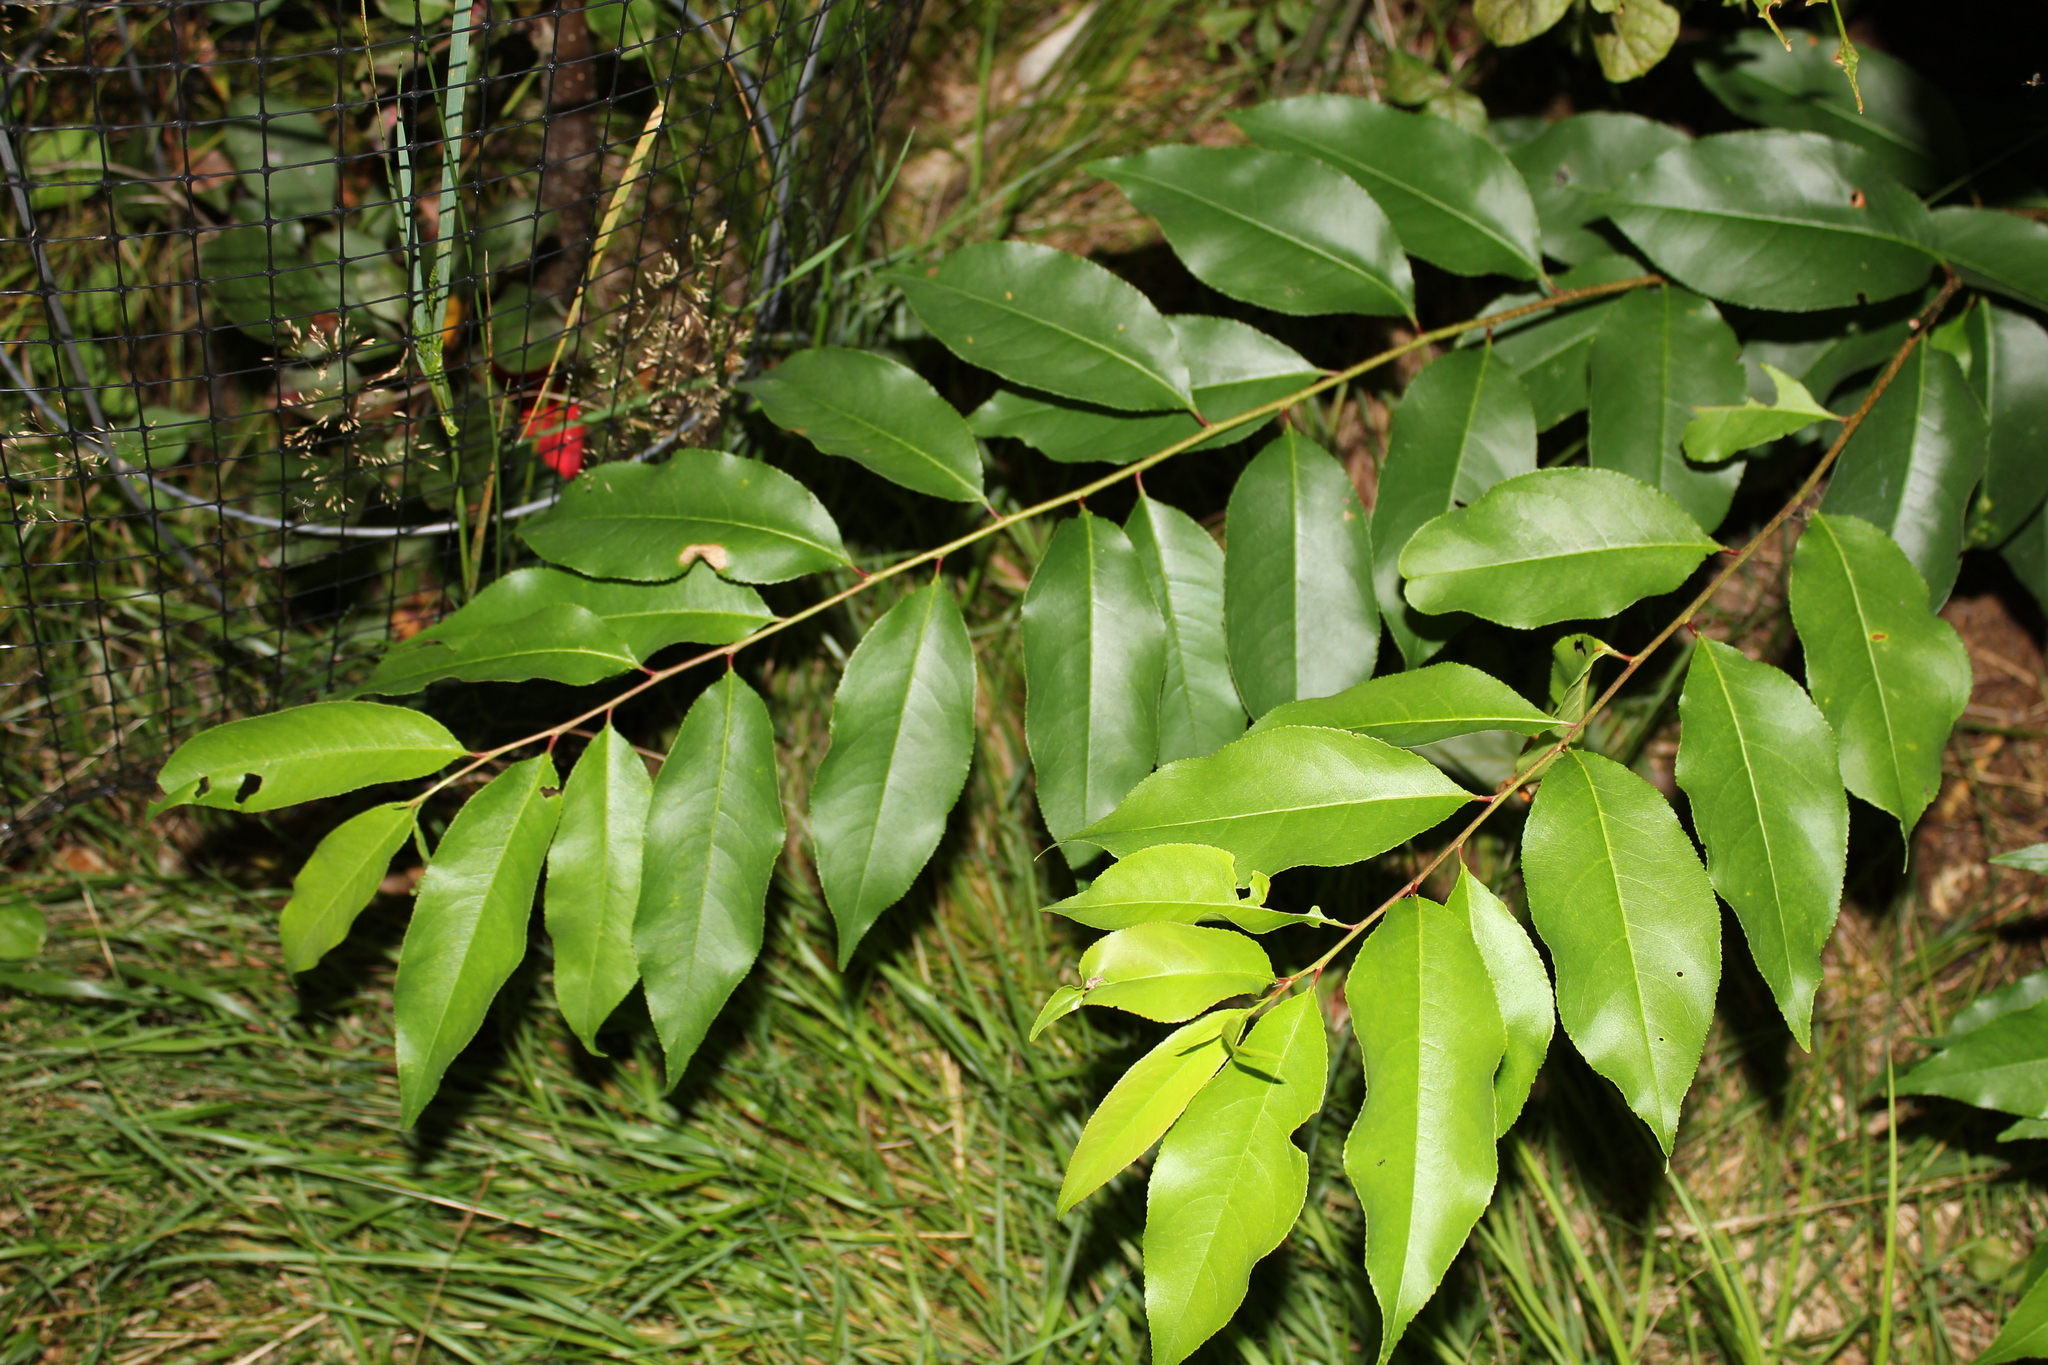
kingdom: Plantae
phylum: Tracheophyta
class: Magnoliopsida
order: Rosales
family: Rosaceae
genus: Prunus
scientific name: Prunus serotina
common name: Black cherry
